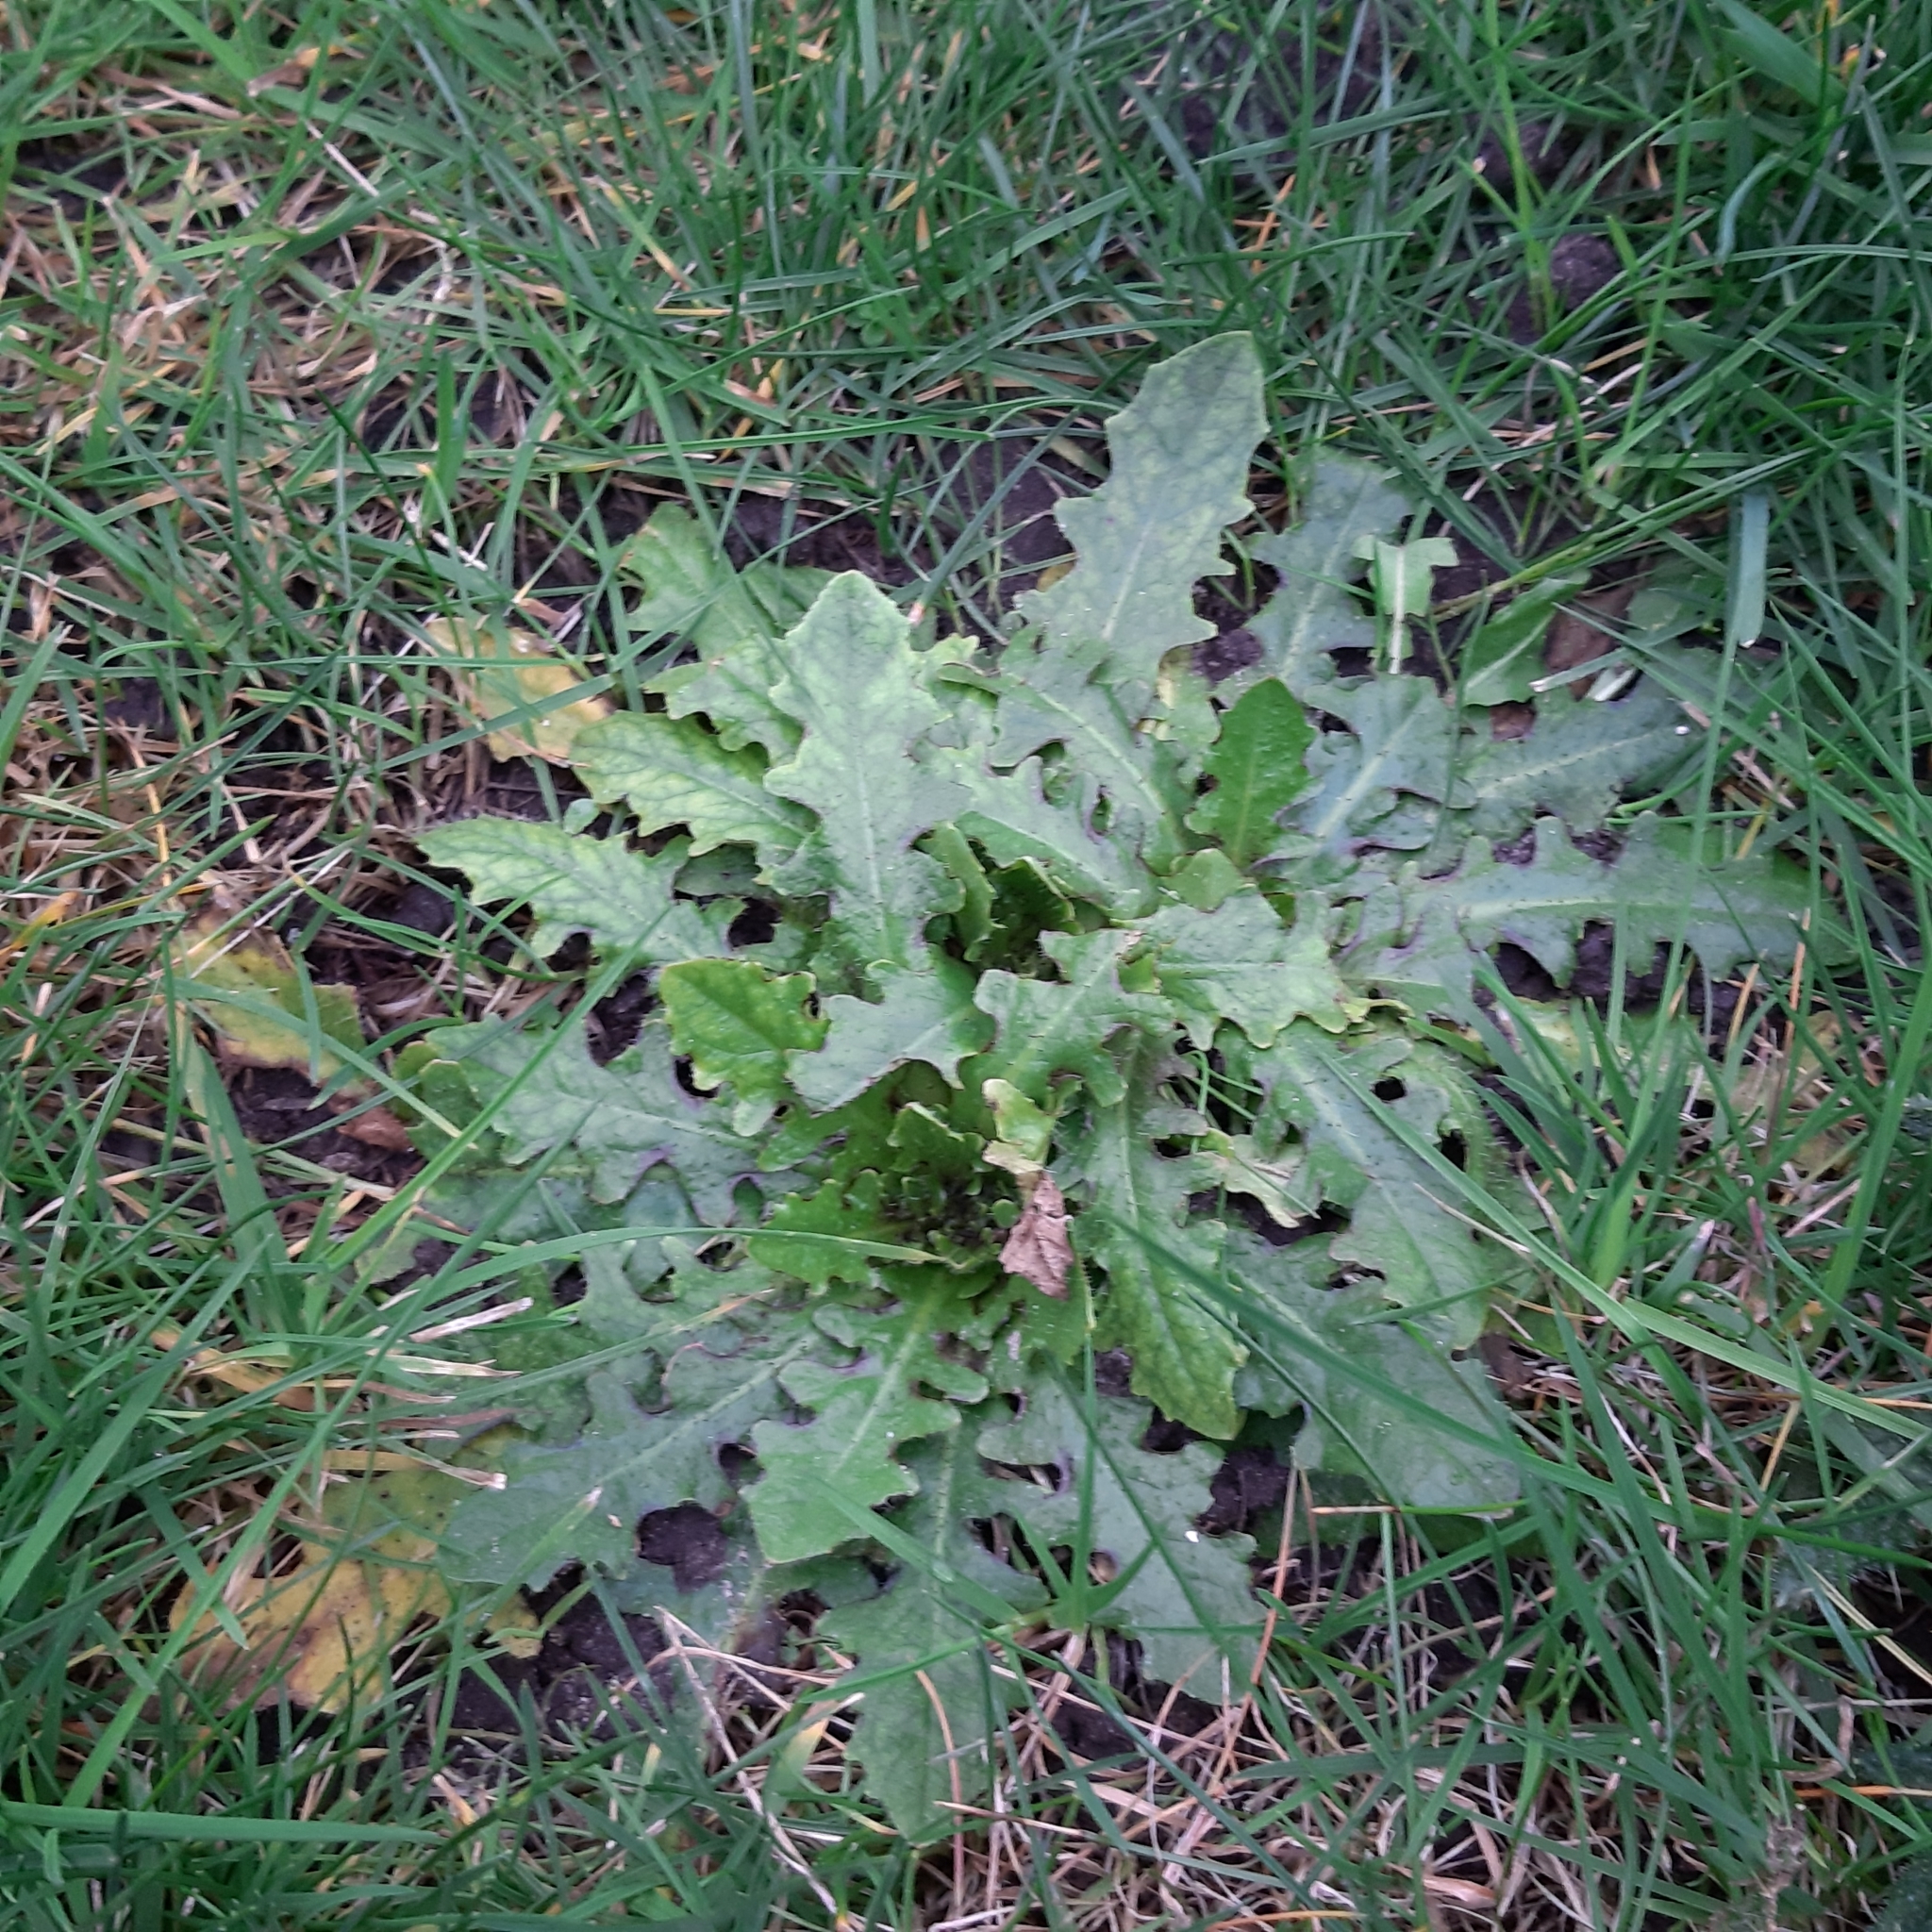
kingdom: Plantae
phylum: Tracheophyta
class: Magnoliopsida
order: Asterales
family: Asteraceae
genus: Hypochaeris
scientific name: Hypochaeris radicata
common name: Flatweed
